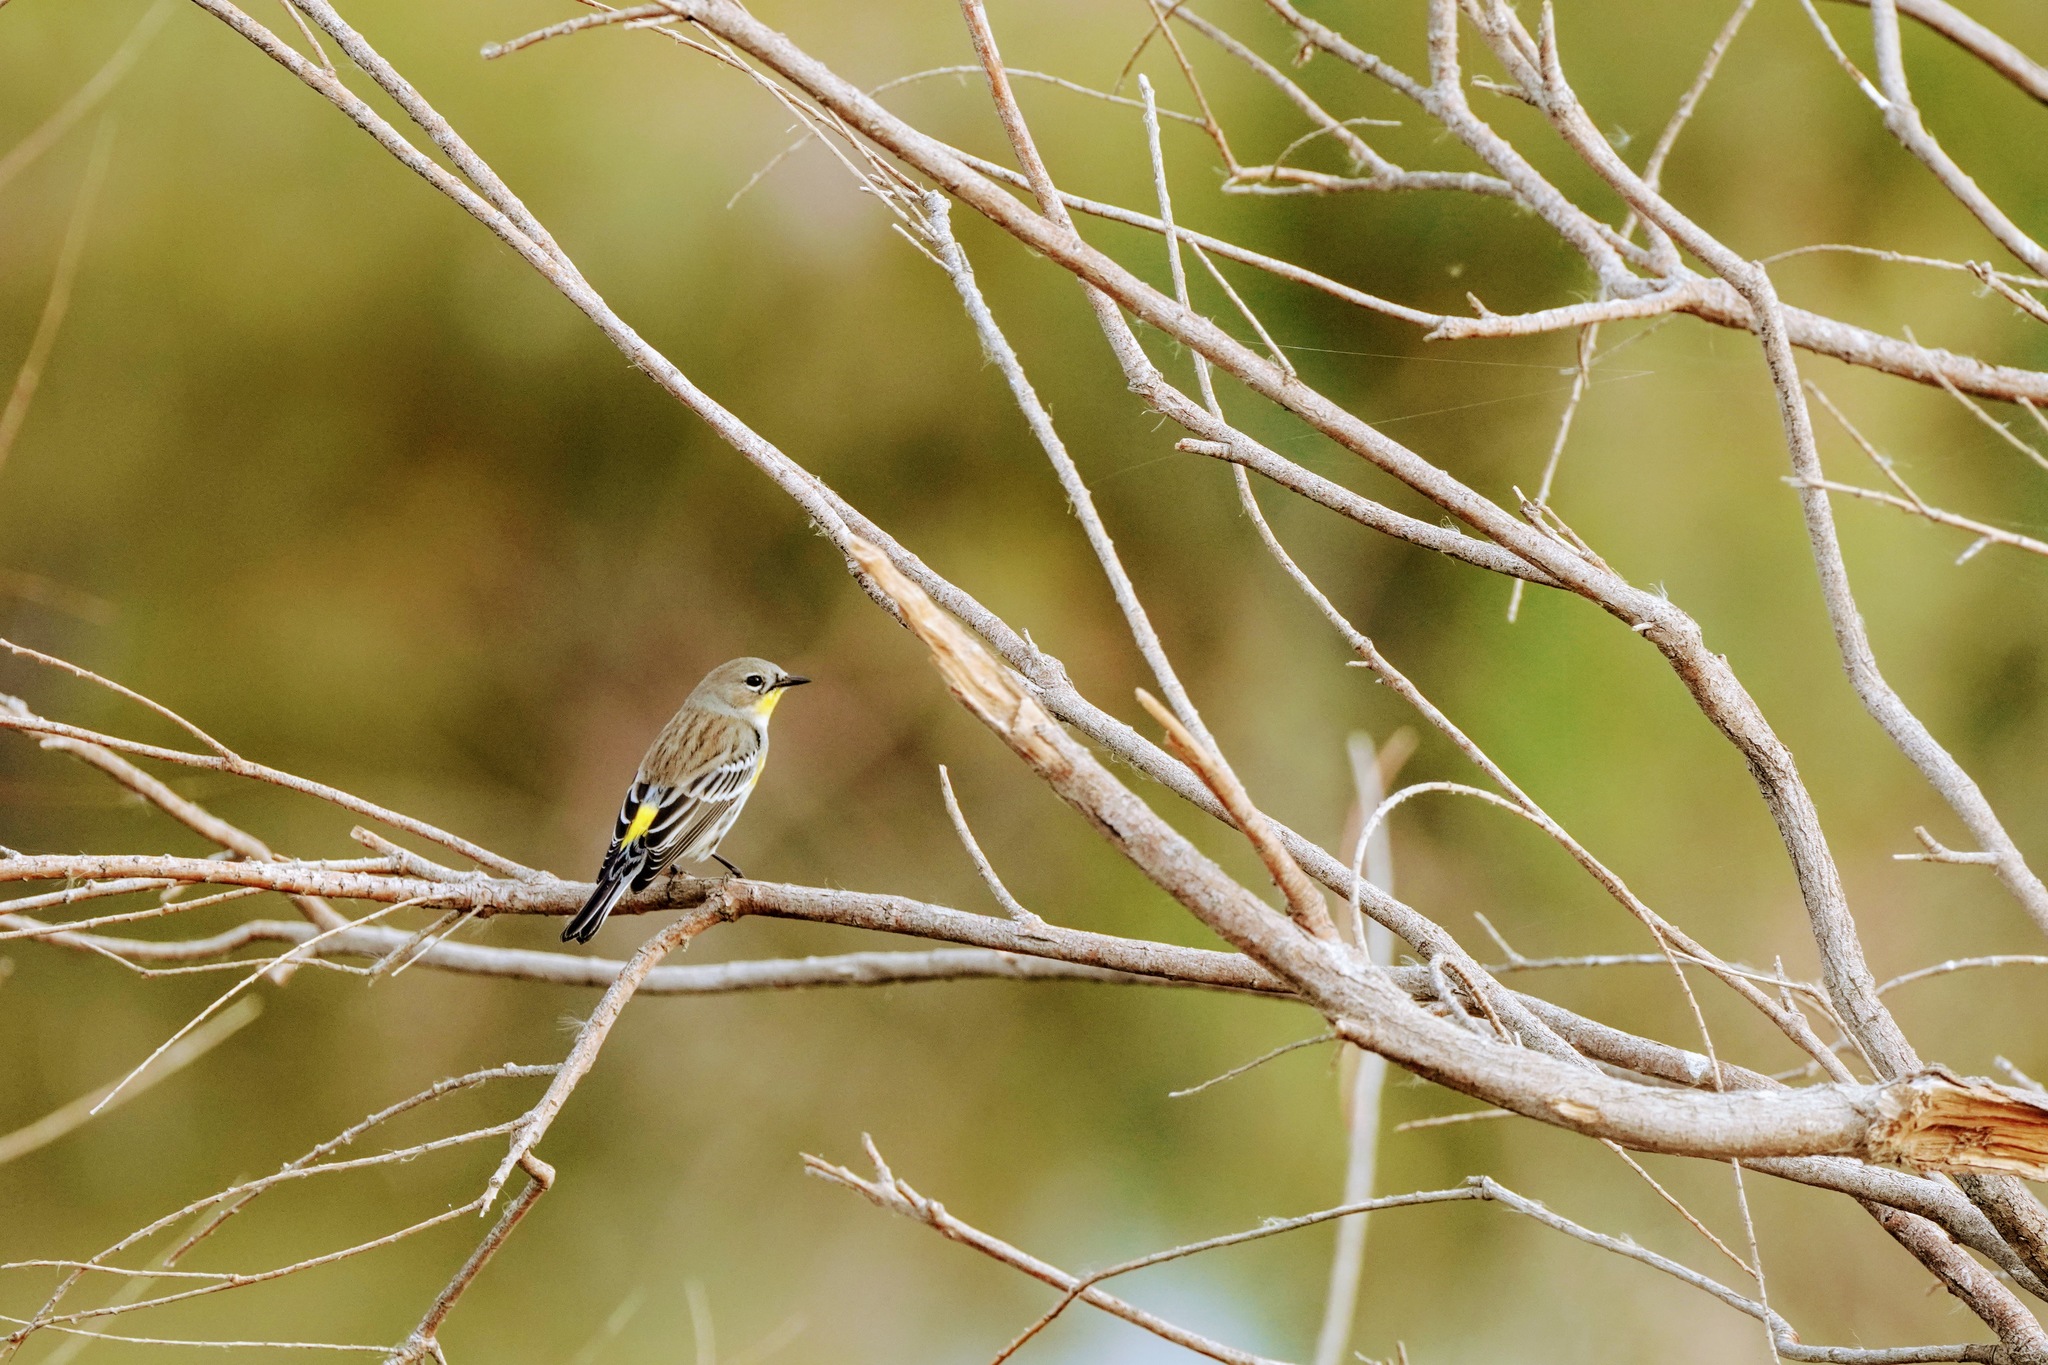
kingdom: Animalia
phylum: Chordata
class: Aves
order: Passeriformes
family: Parulidae
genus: Setophaga
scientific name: Setophaga coronata
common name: Myrtle warbler
